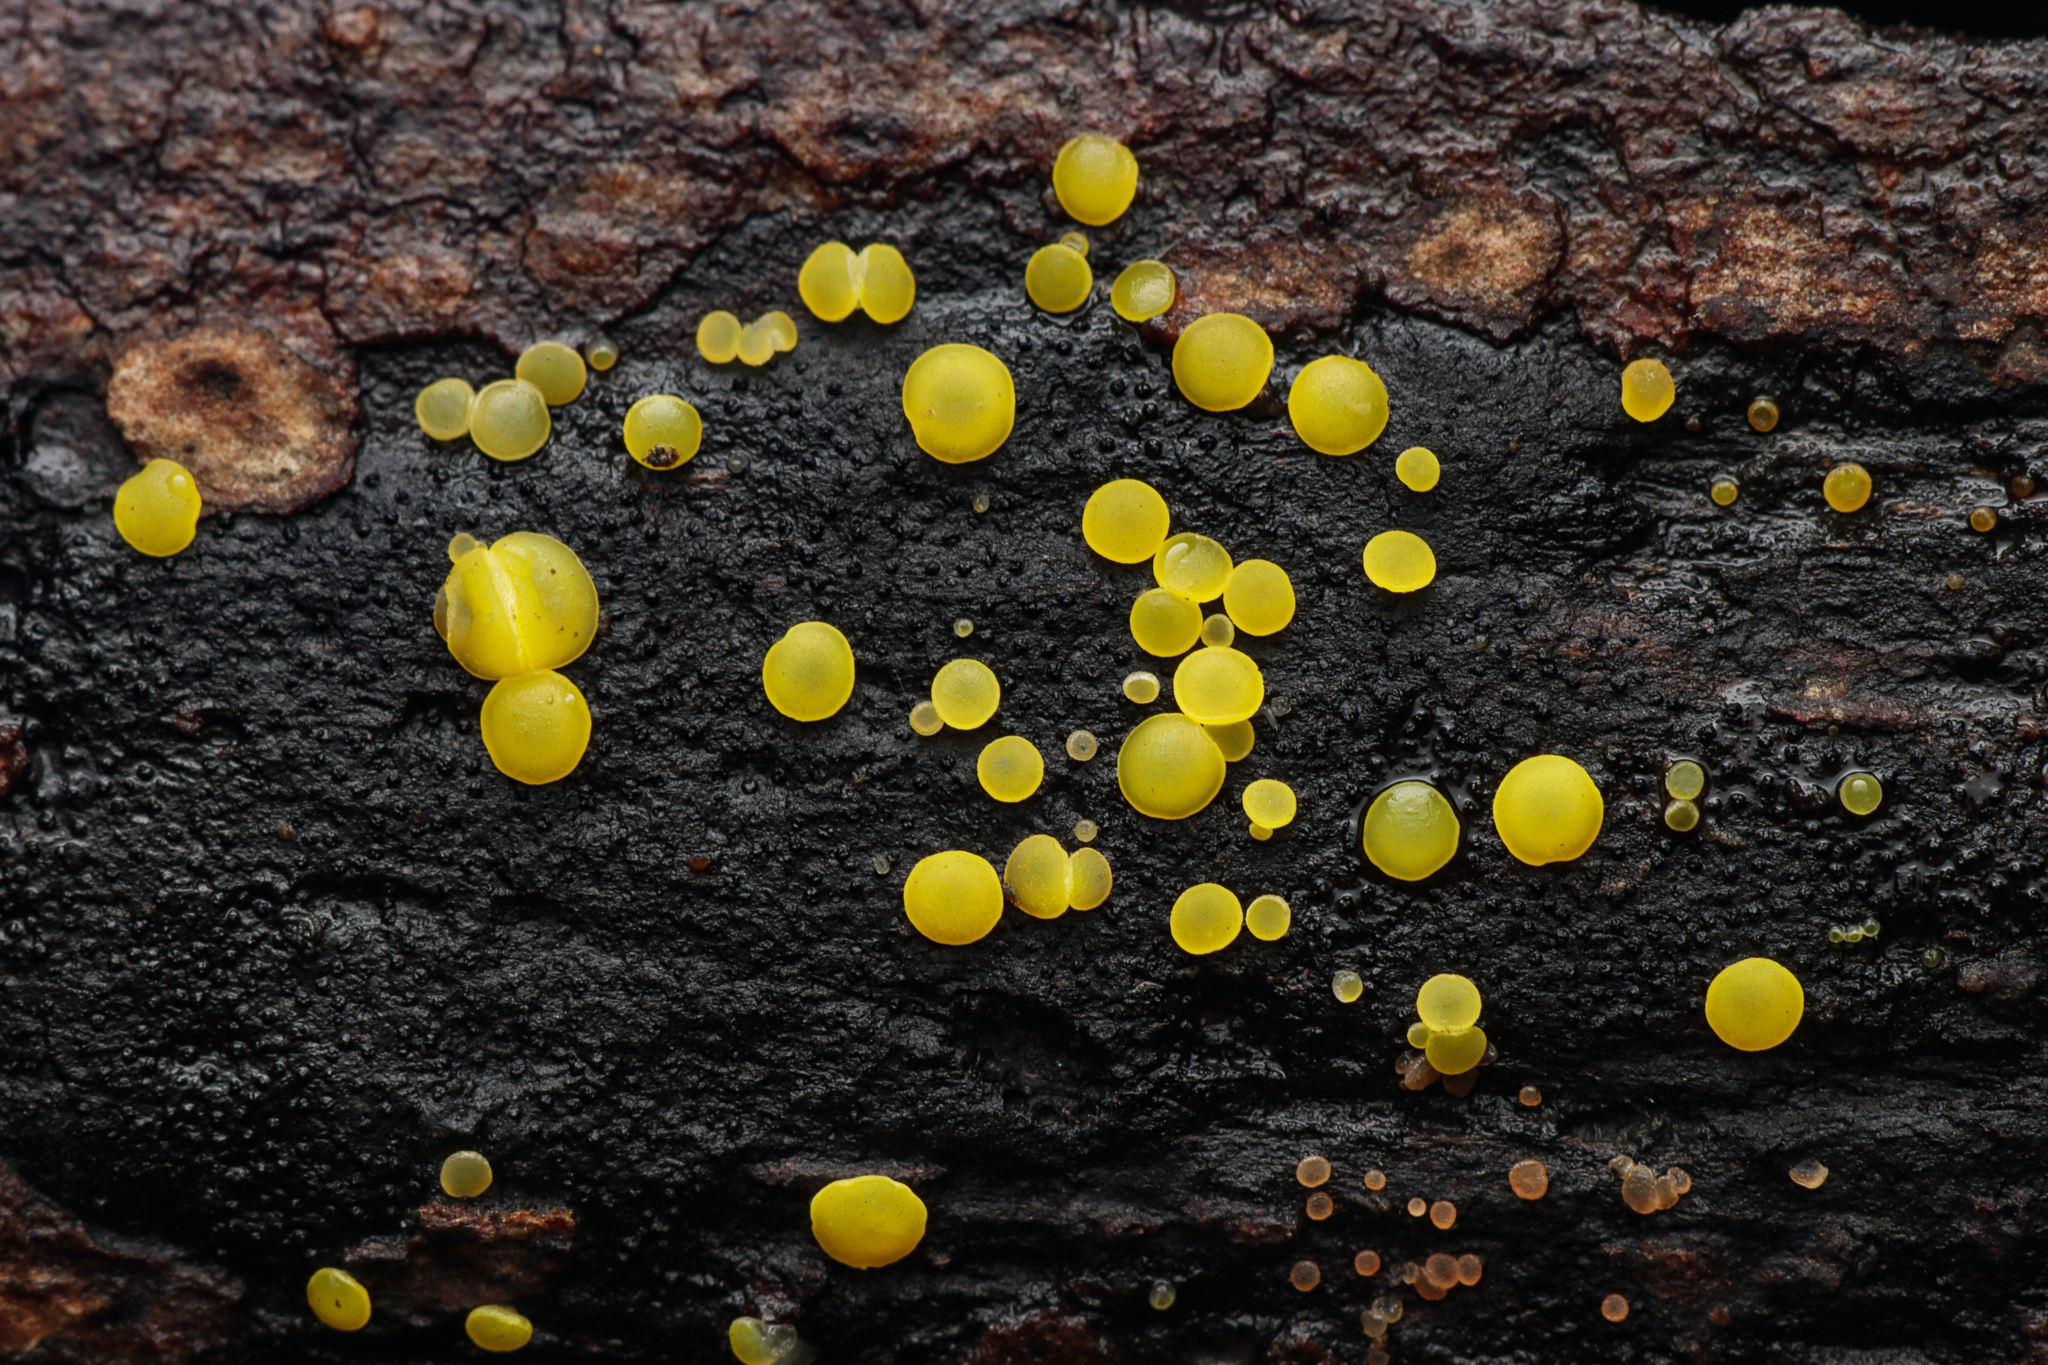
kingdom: Fungi
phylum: Ascomycota
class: Leotiomycetes
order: Helotiales
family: Pezizellaceae
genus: Calycina
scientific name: Calycina citrina
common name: Yellow fairy cups
